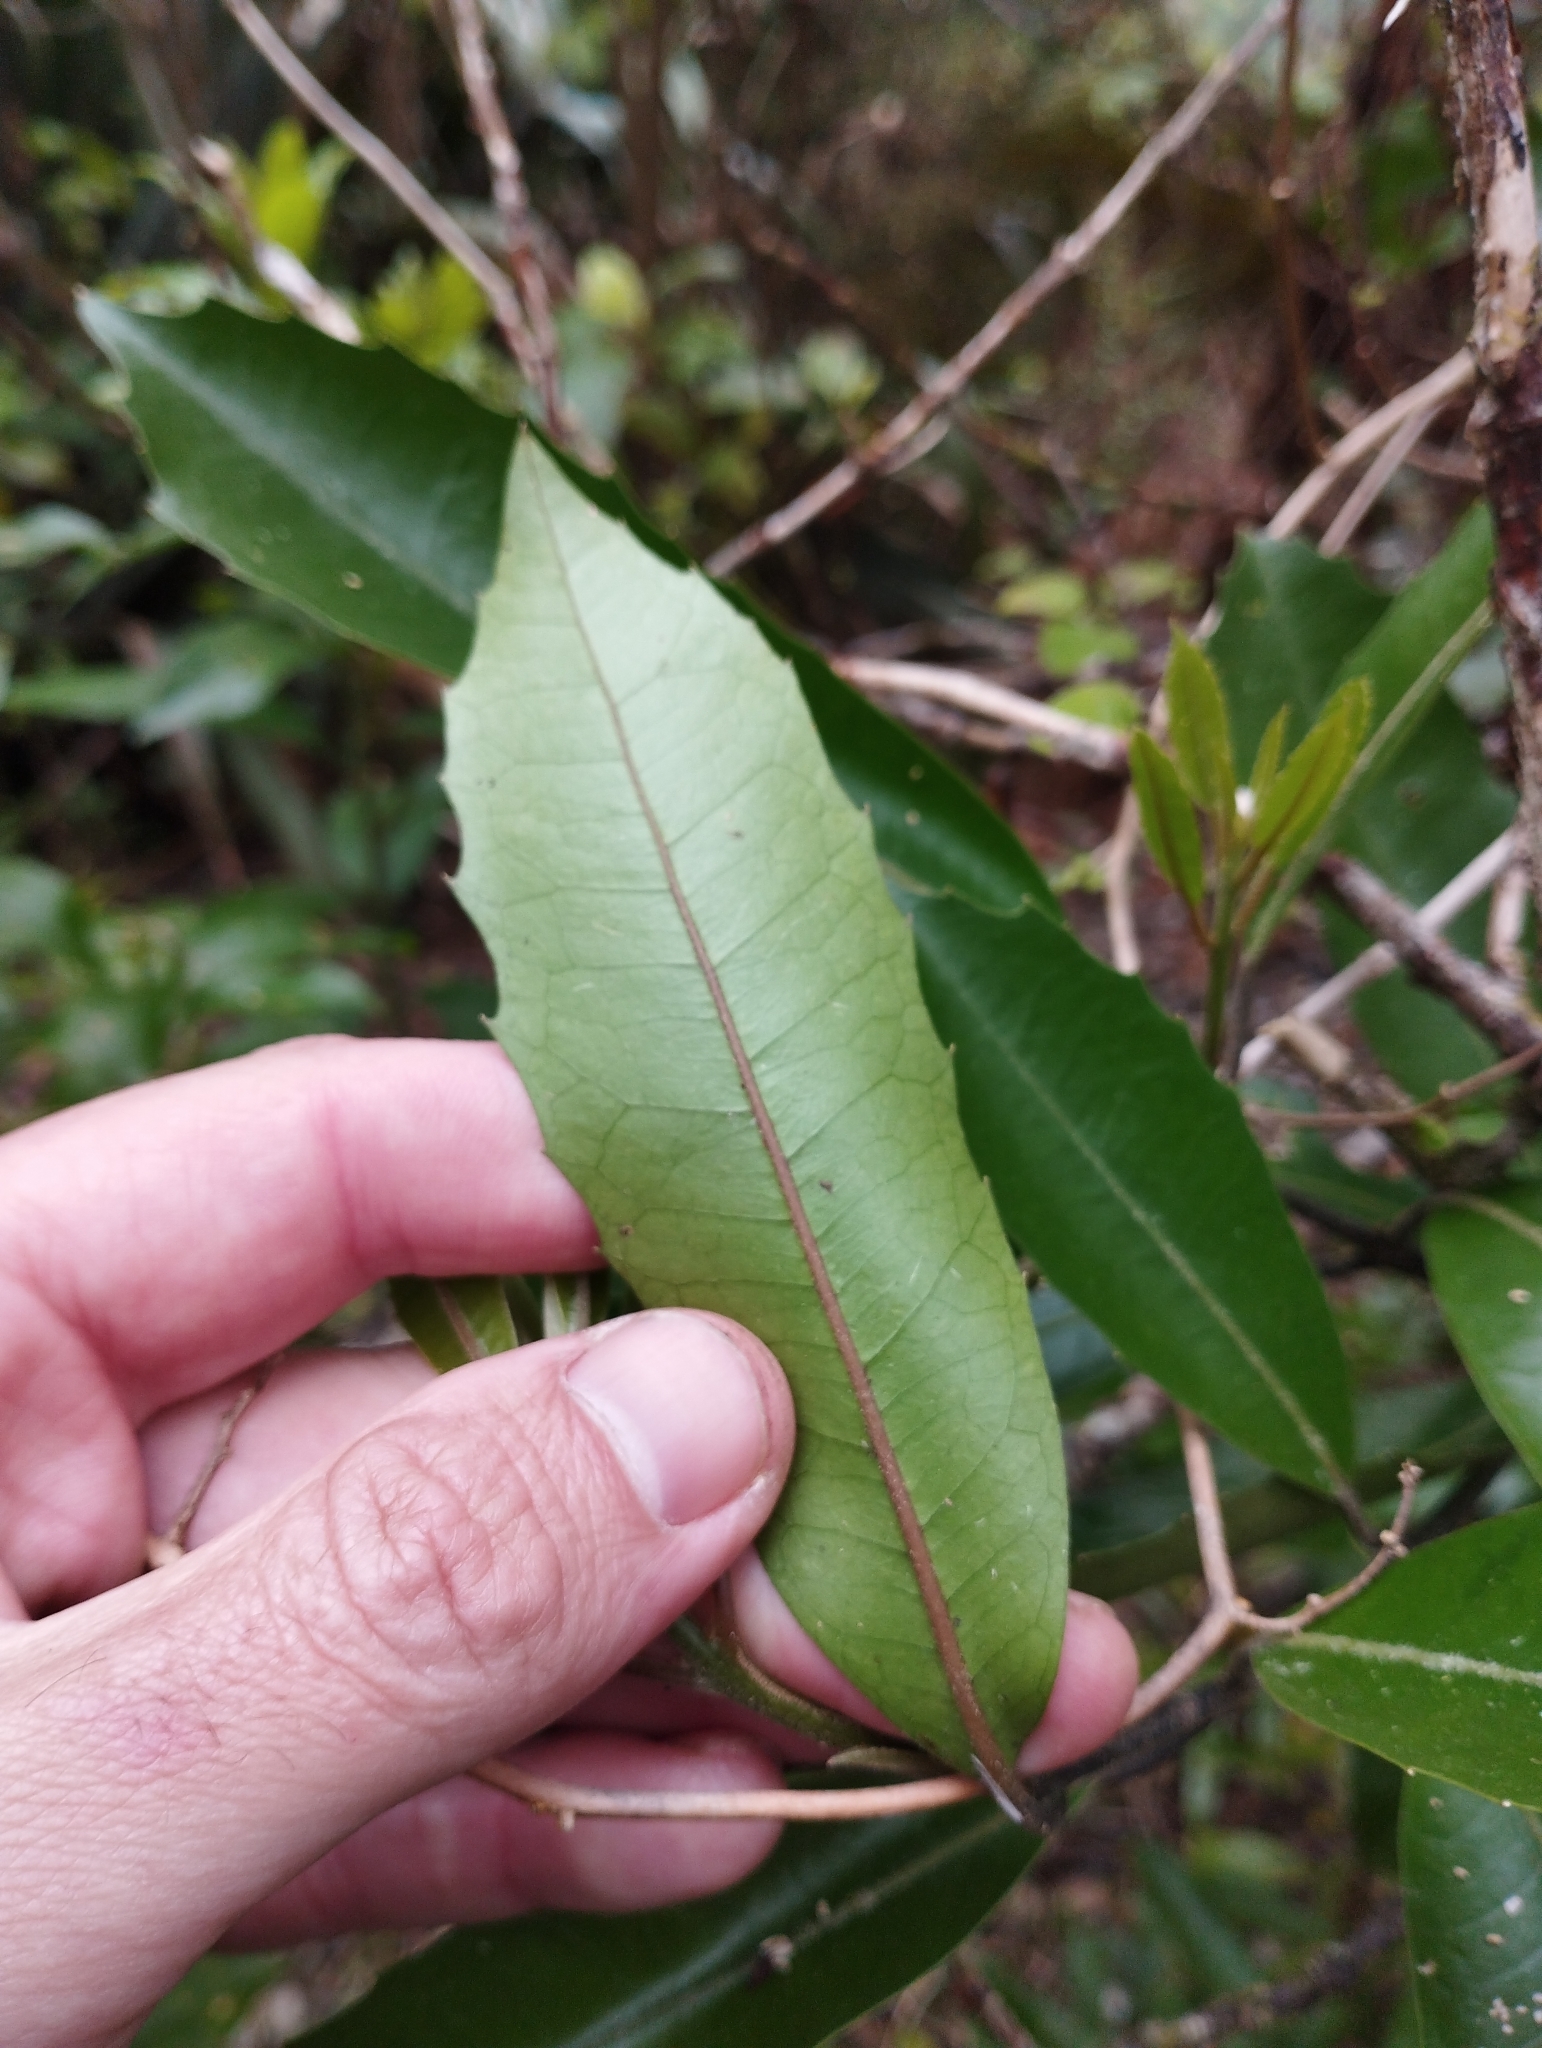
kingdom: Plantae
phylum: Tracheophyta
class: Magnoliopsida
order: Laurales
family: Monimiaceae
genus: Hedycarya
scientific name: Hedycarya arborea
